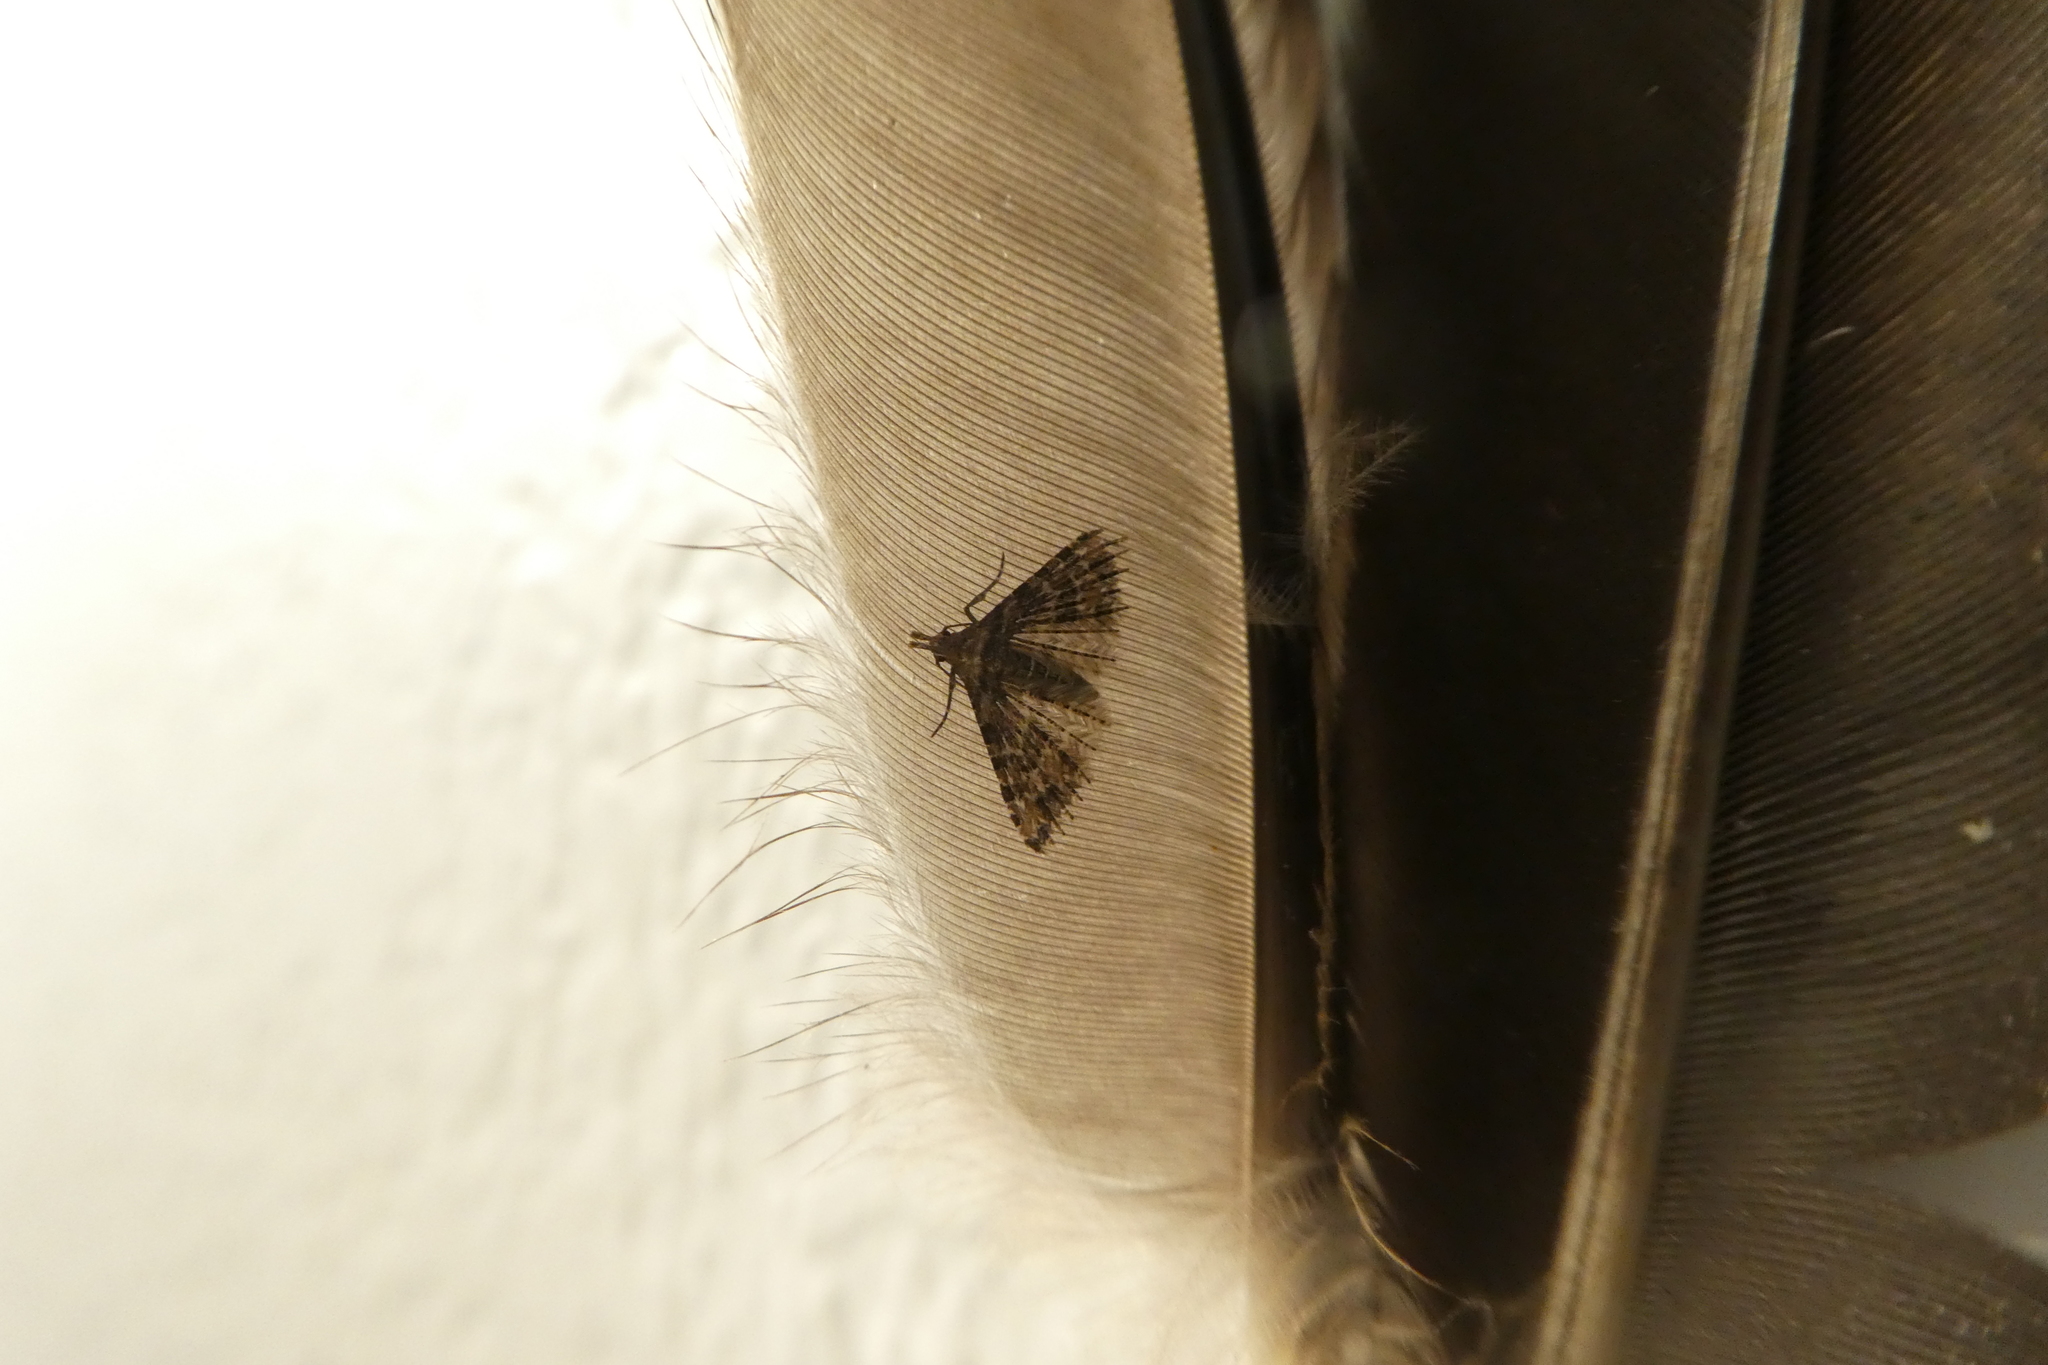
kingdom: Animalia
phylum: Arthropoda
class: Insecta
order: Lepidoptera
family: Alucitidae
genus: Alucita
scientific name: Alucita montana
